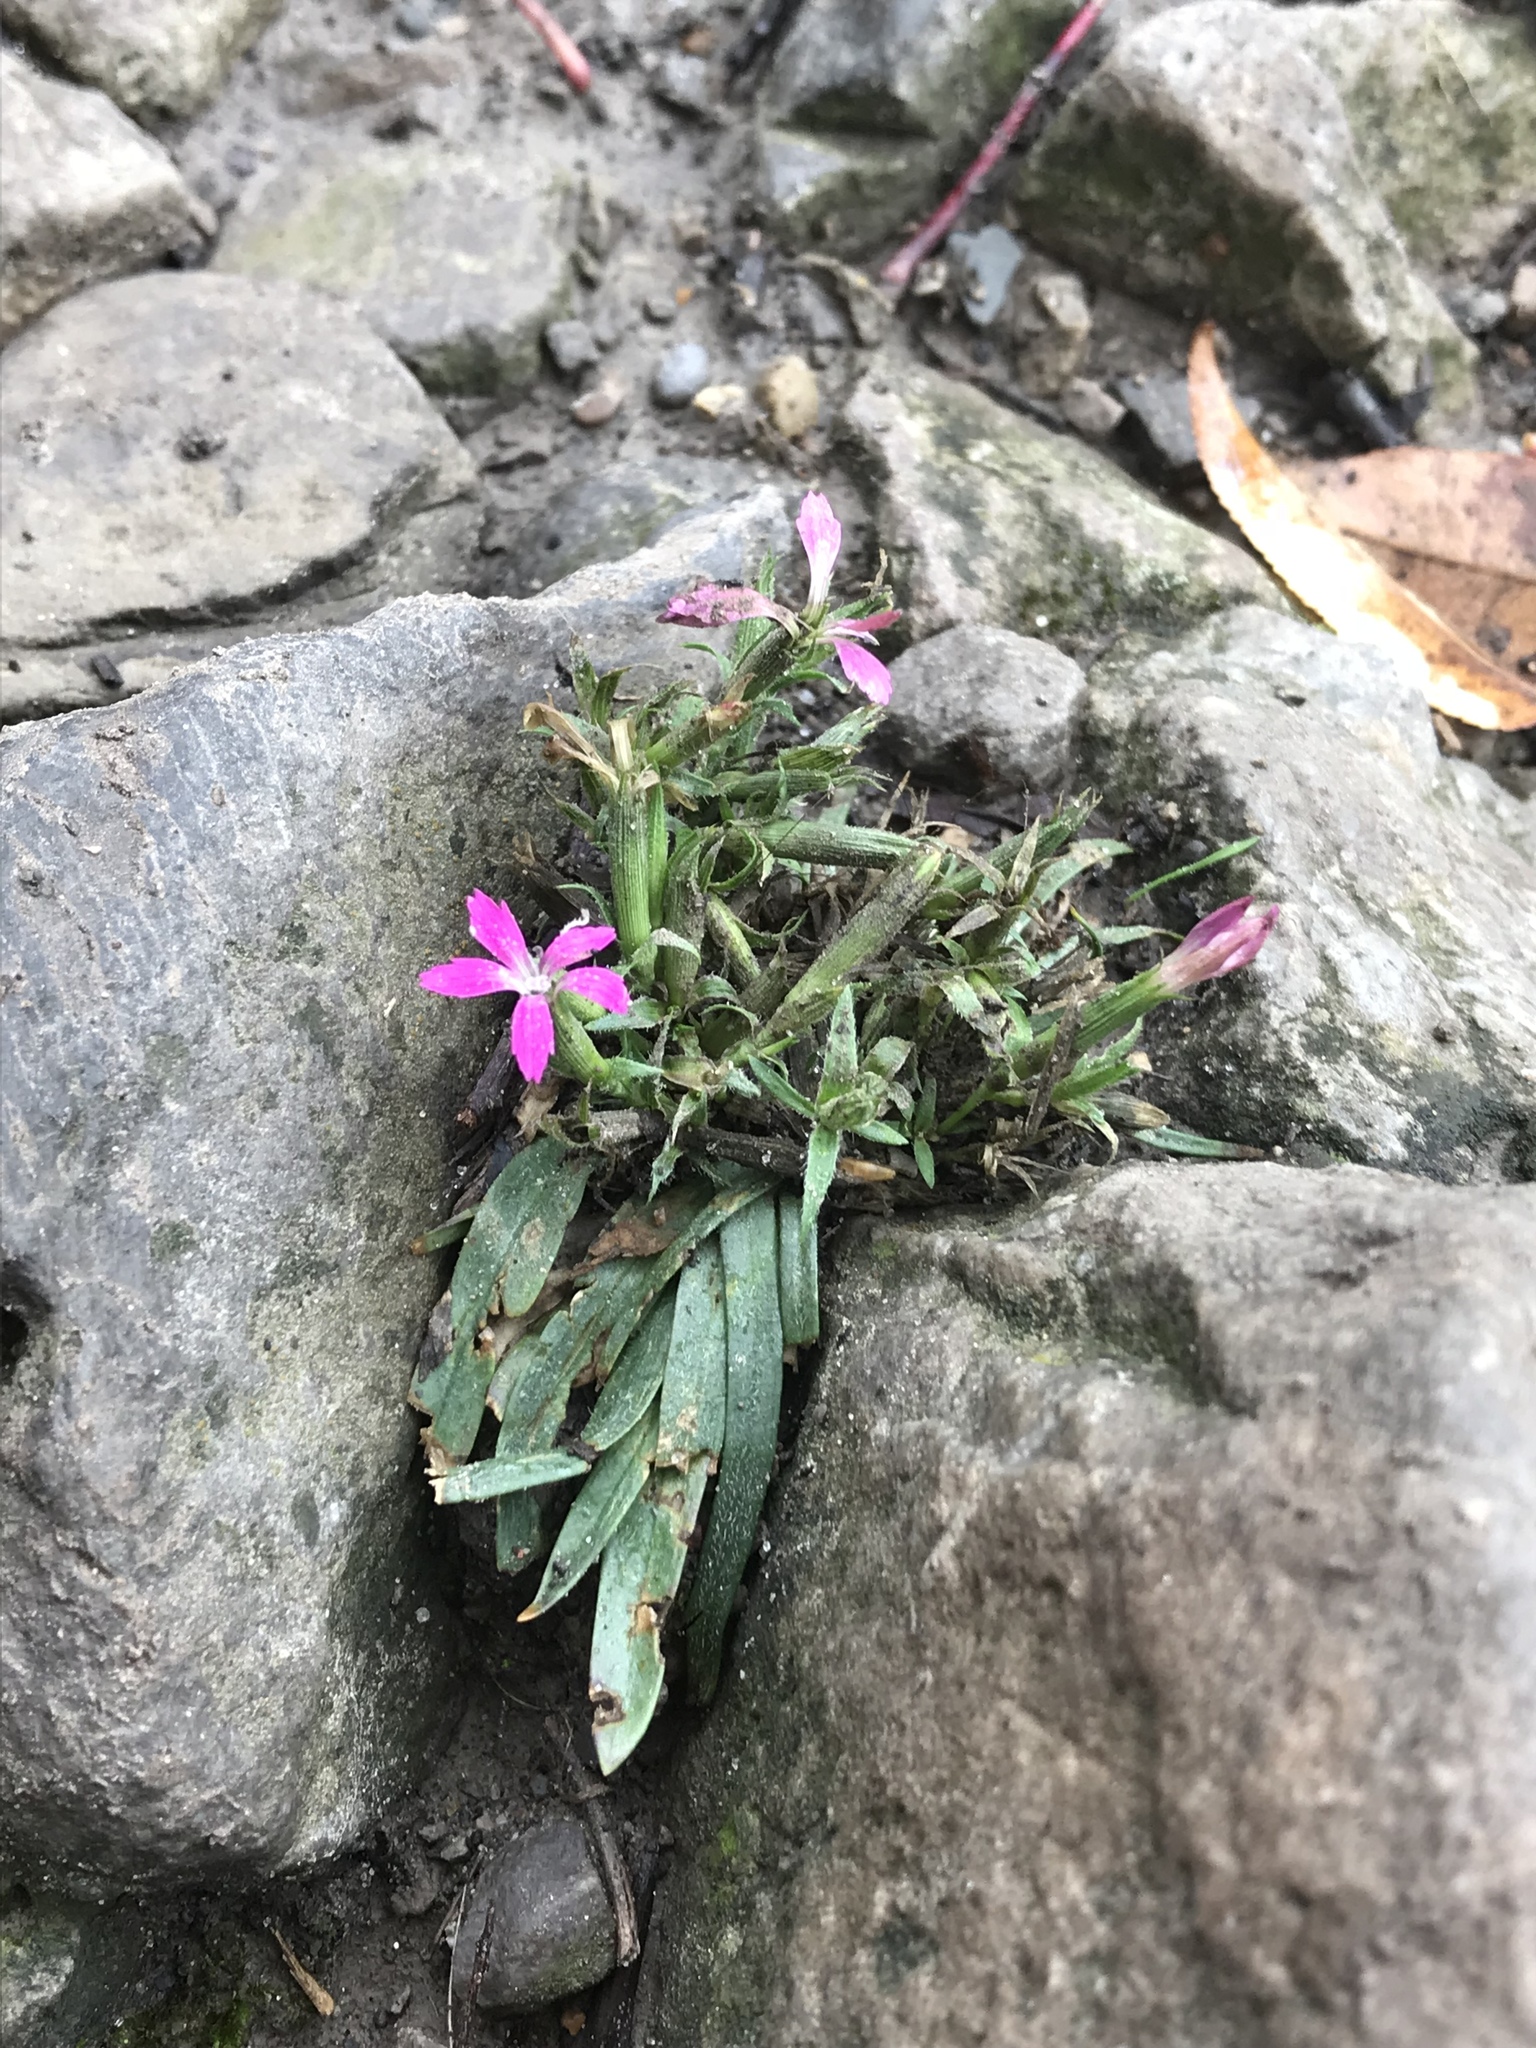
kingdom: Plantae
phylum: Tracheophyta
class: Magnoliopsida
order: Caryophyllales
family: Caryophyllaceae
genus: Dianthus
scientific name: Dianthus armeria
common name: Deptford pink
